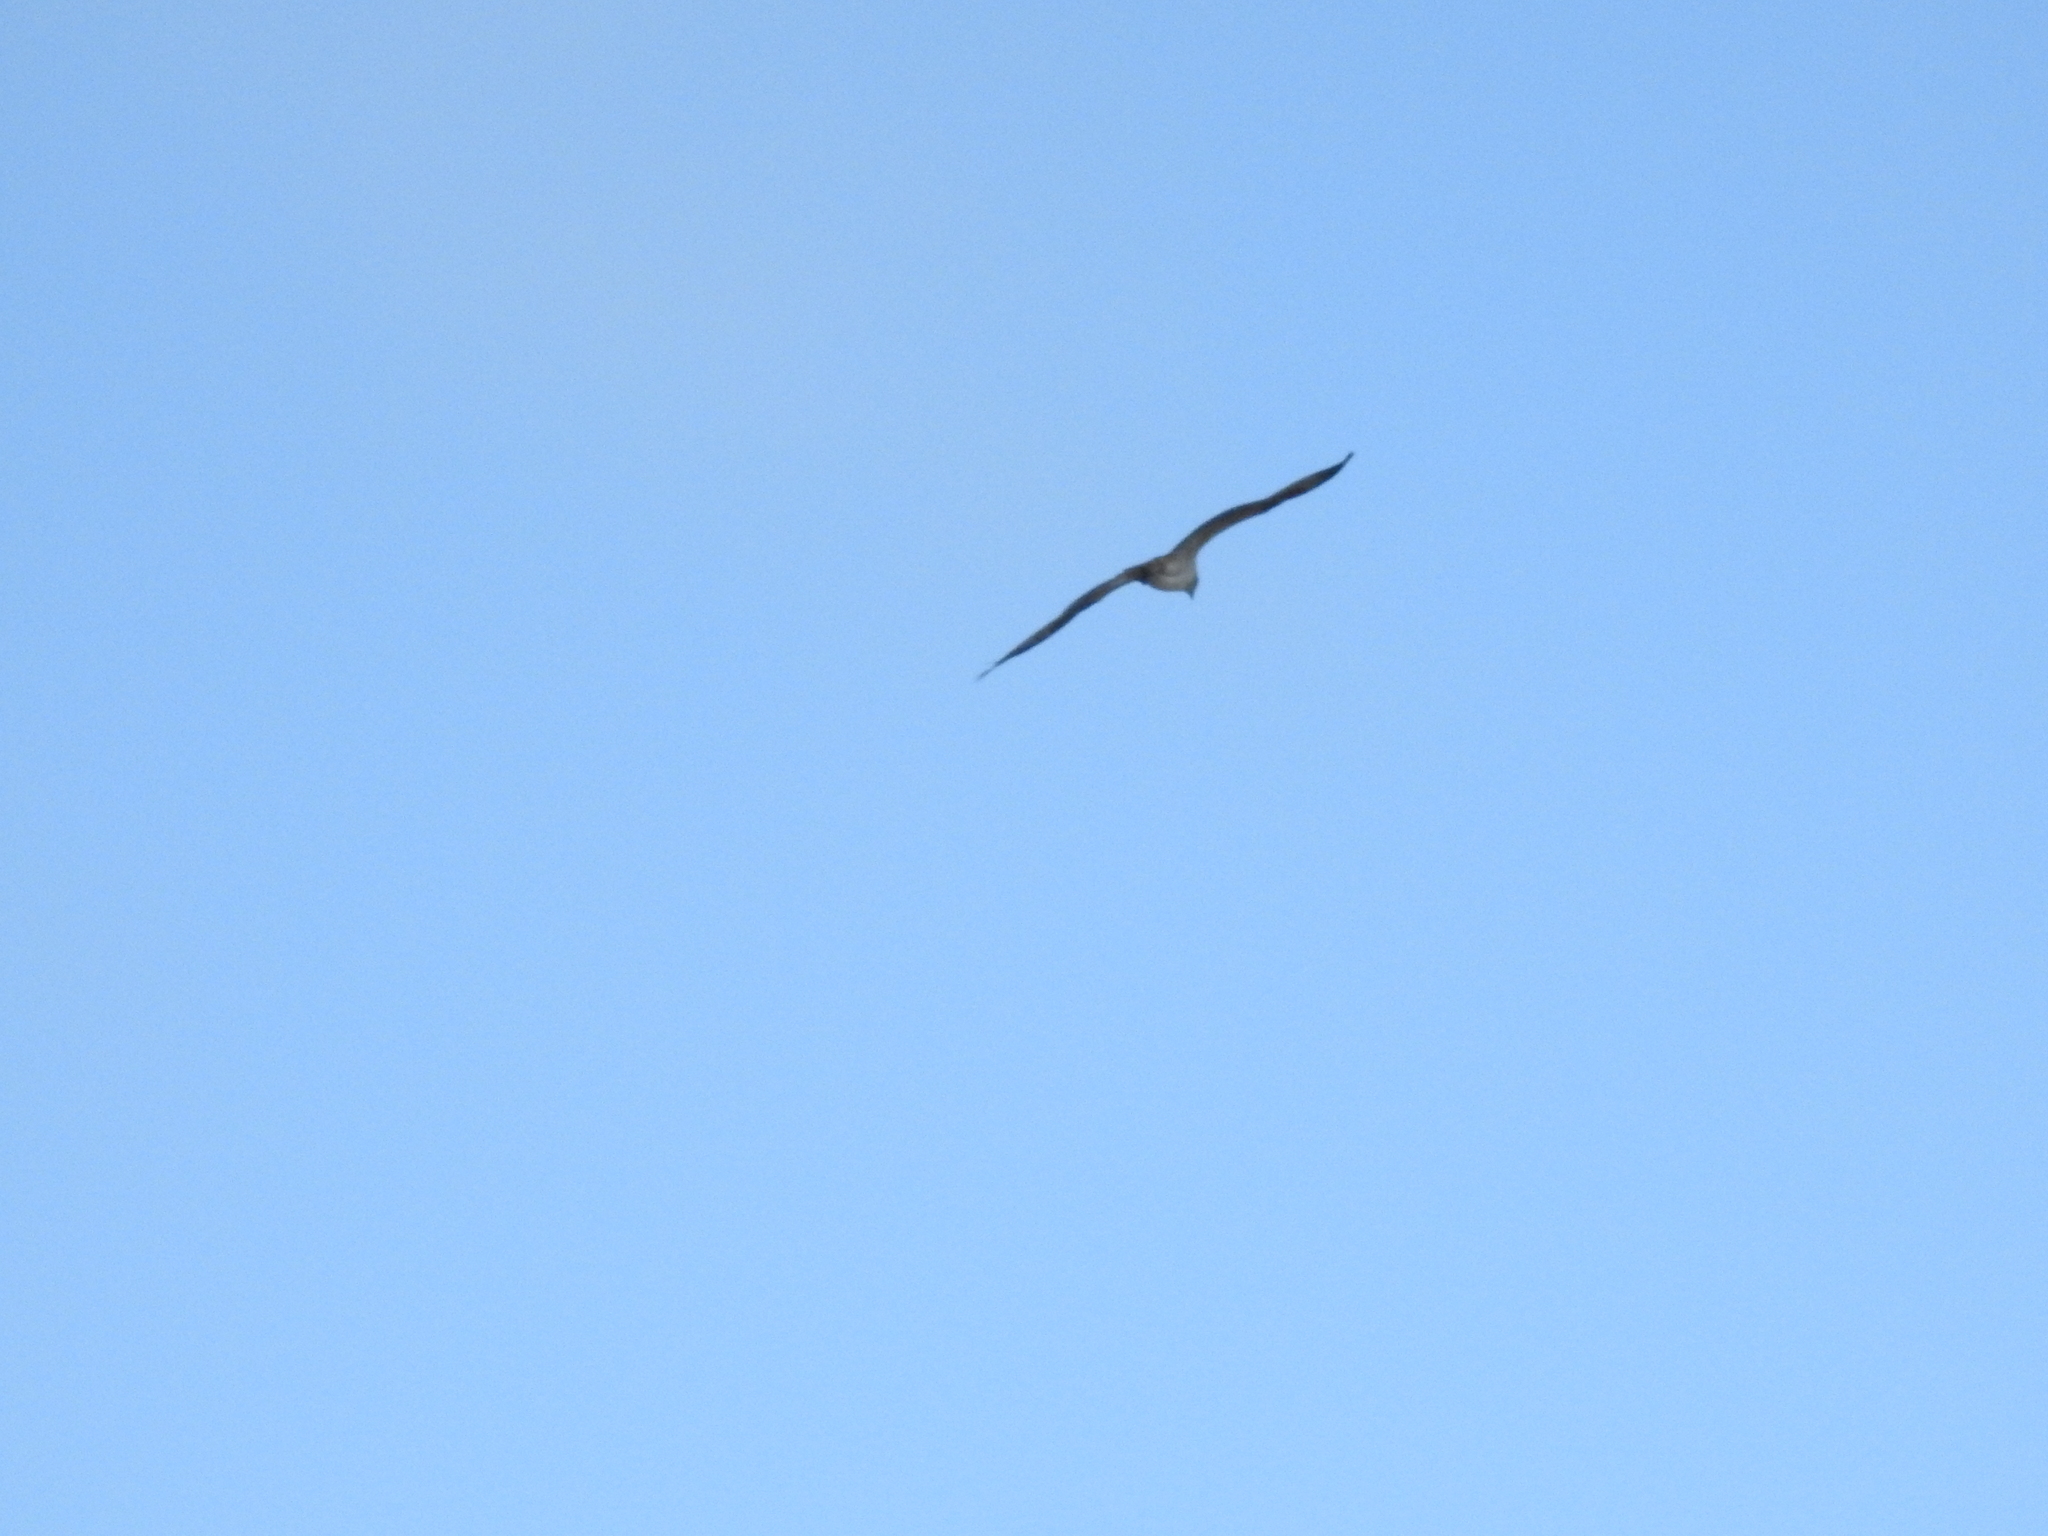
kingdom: Animalia
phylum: Chordata
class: Aves
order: Accipitriformes
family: Pandionidae
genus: Pandion
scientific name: Pandion haliaetus
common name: Osprey
